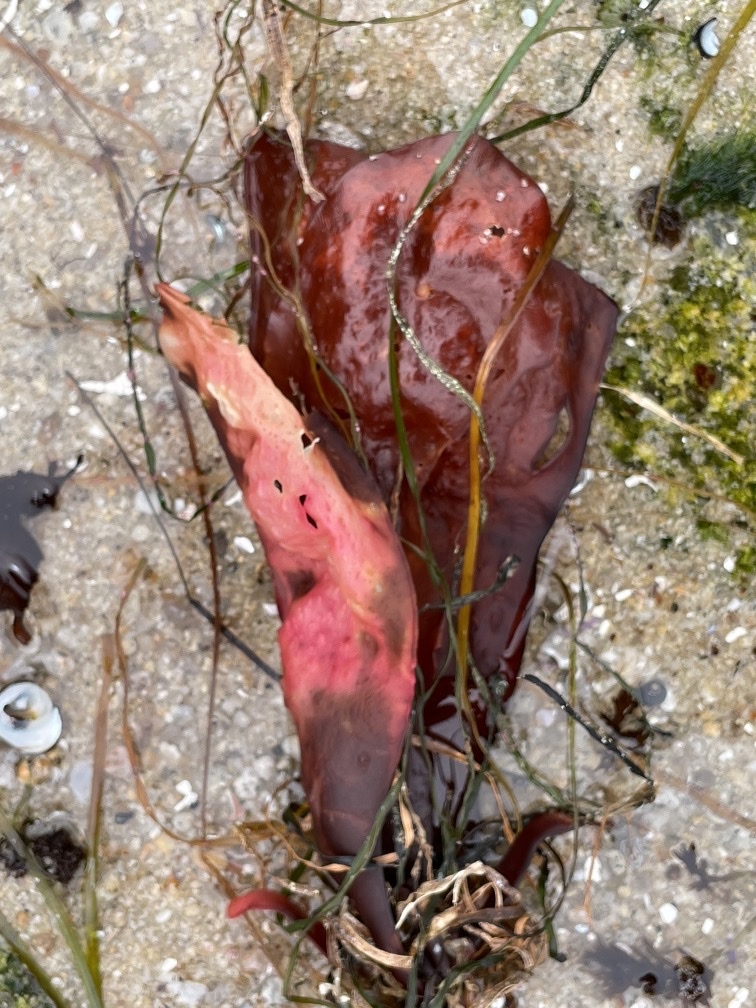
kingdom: Plantae
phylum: Rhodophyta
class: Florideophyceae
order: Gigartinales
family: Gigartinaceae
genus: Chondracanthus
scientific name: Chondracanthus exasperatus
